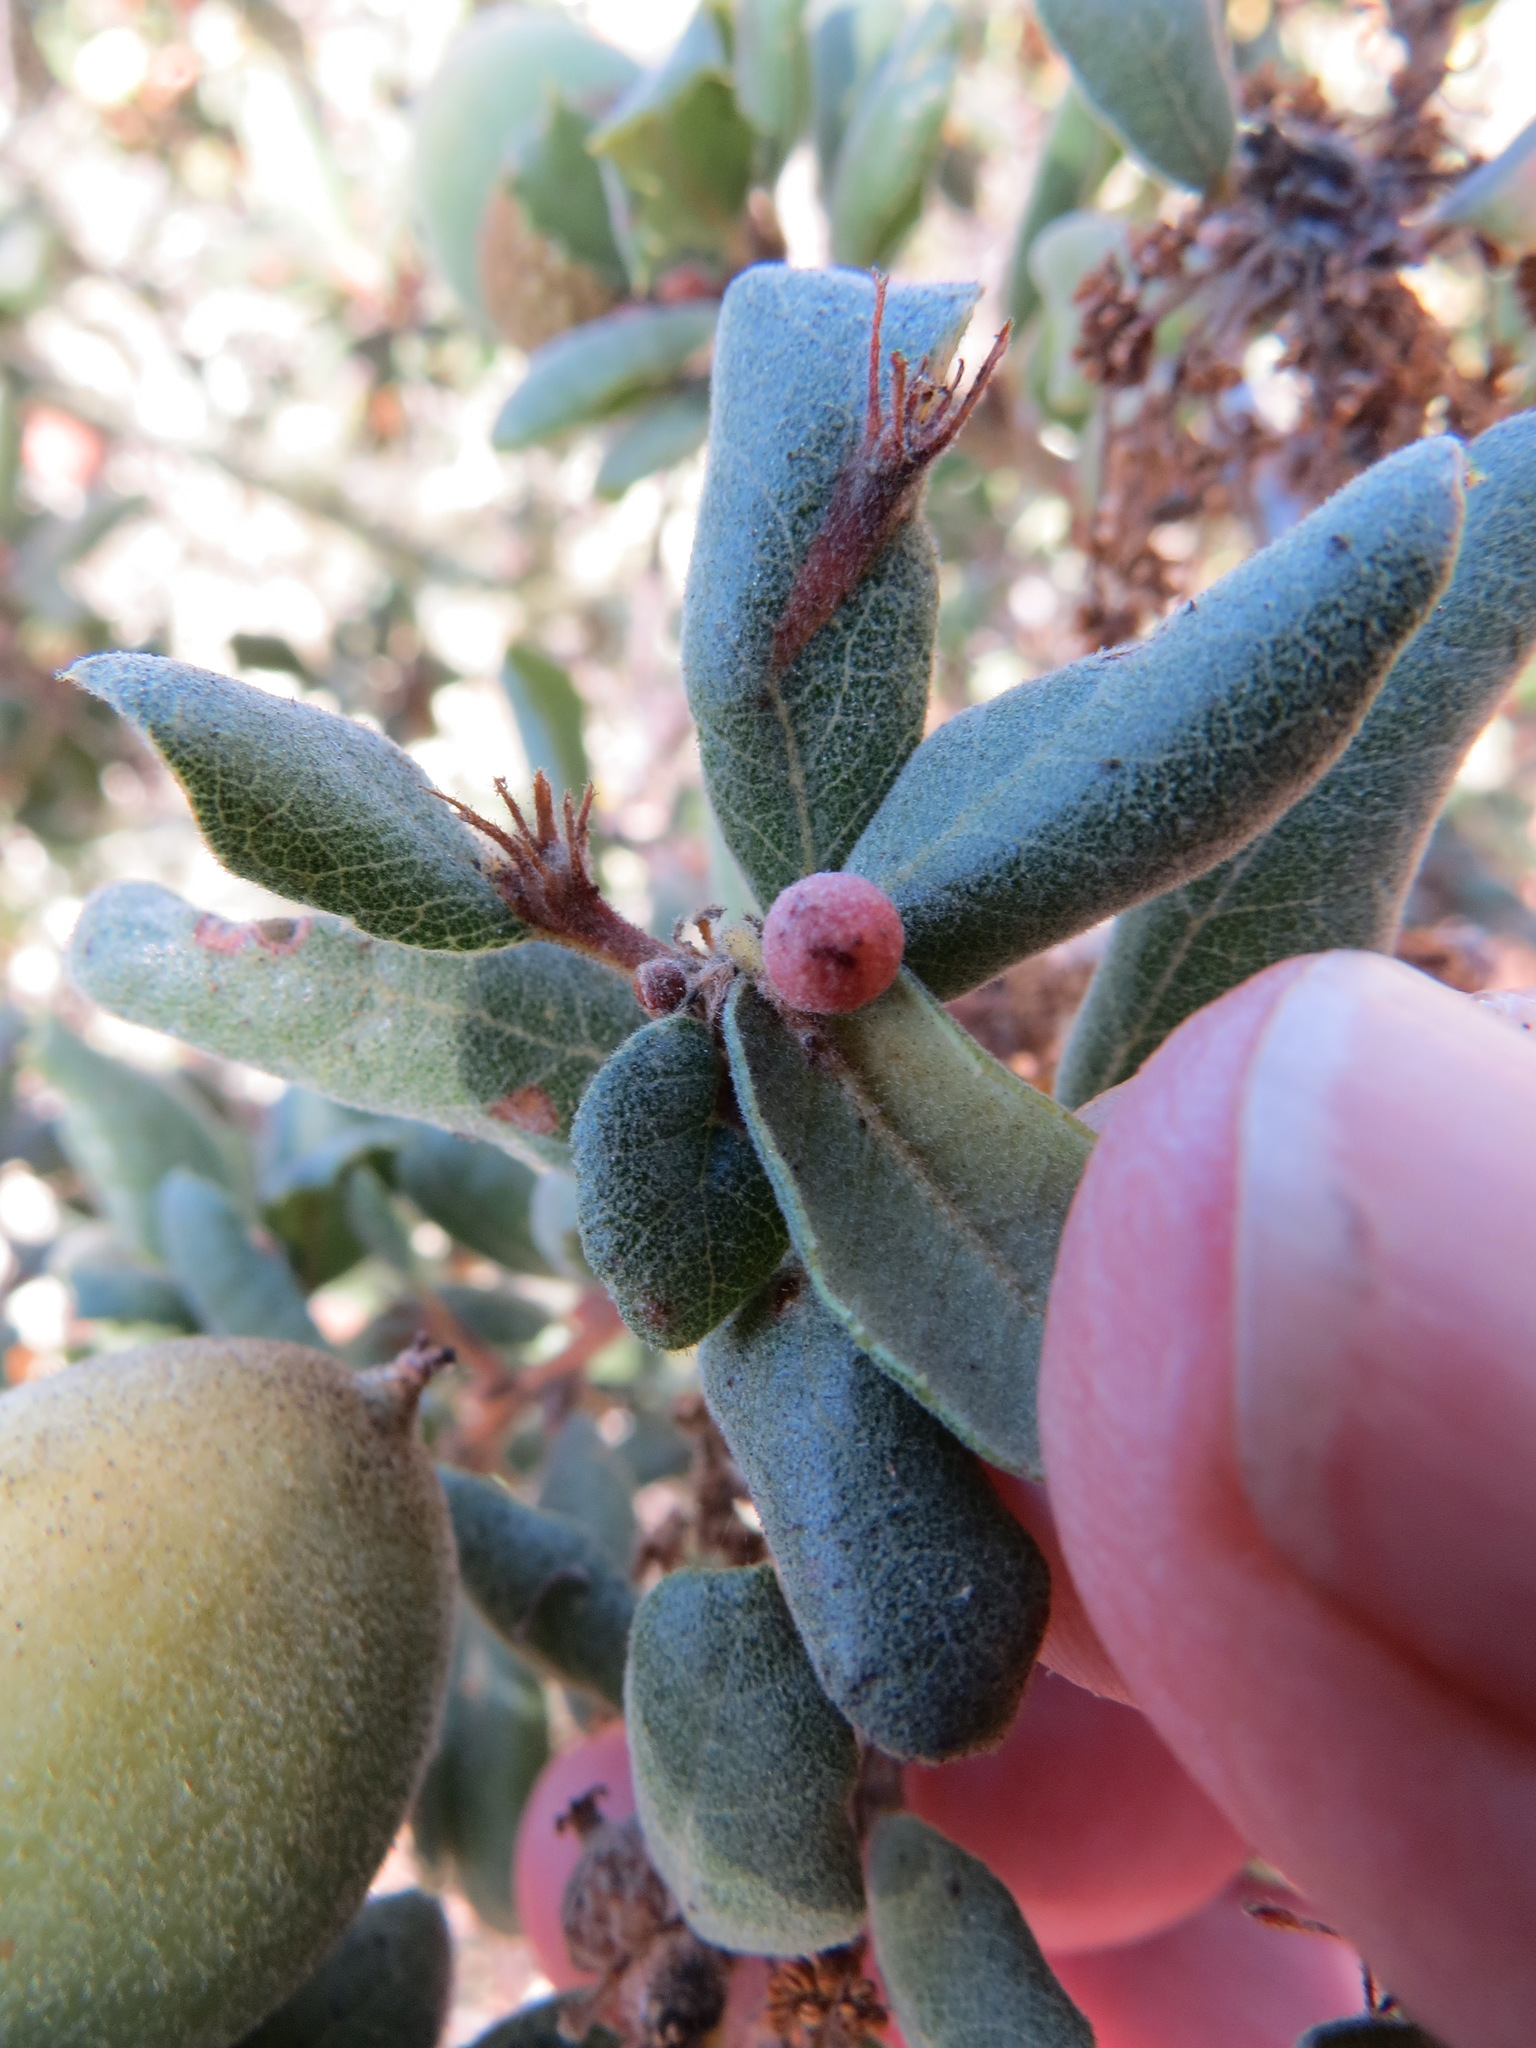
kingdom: Animalia
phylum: Arthropoda
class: Insecta
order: Hymenoptera
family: Cynipidae
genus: Andricus
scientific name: Andricus
